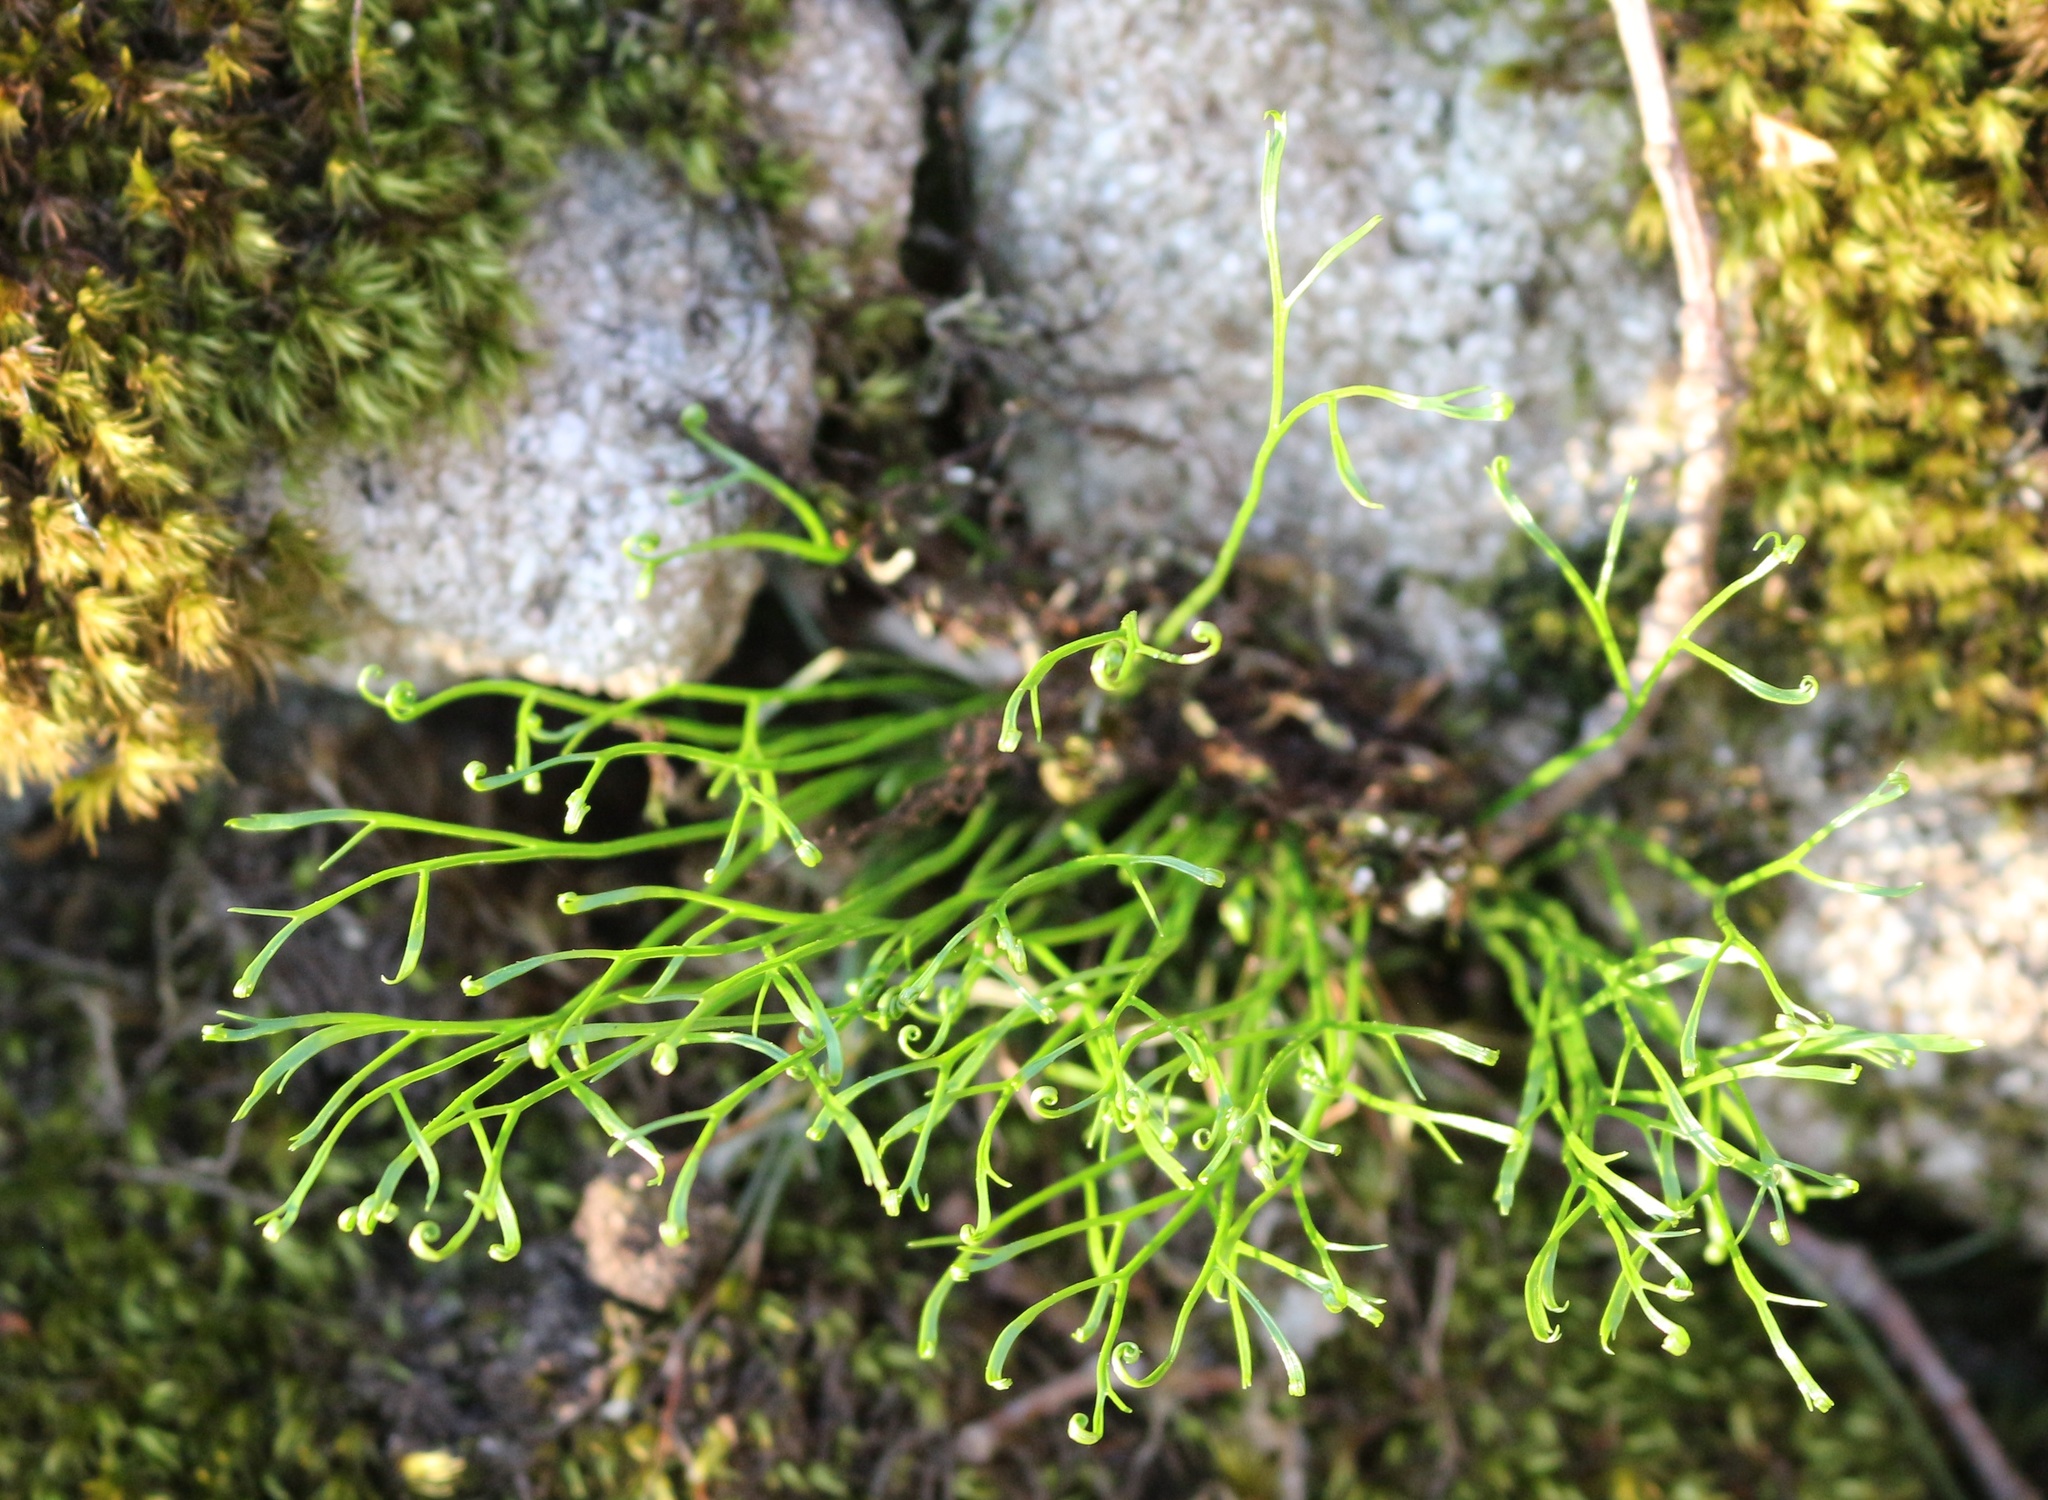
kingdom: Plantae
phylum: Tracheophyta
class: Polypodiopsida
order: Polypodiales
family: Aspleniaceae
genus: Asplenium
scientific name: Asplenium septentrionale
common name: Forked spleenwort
